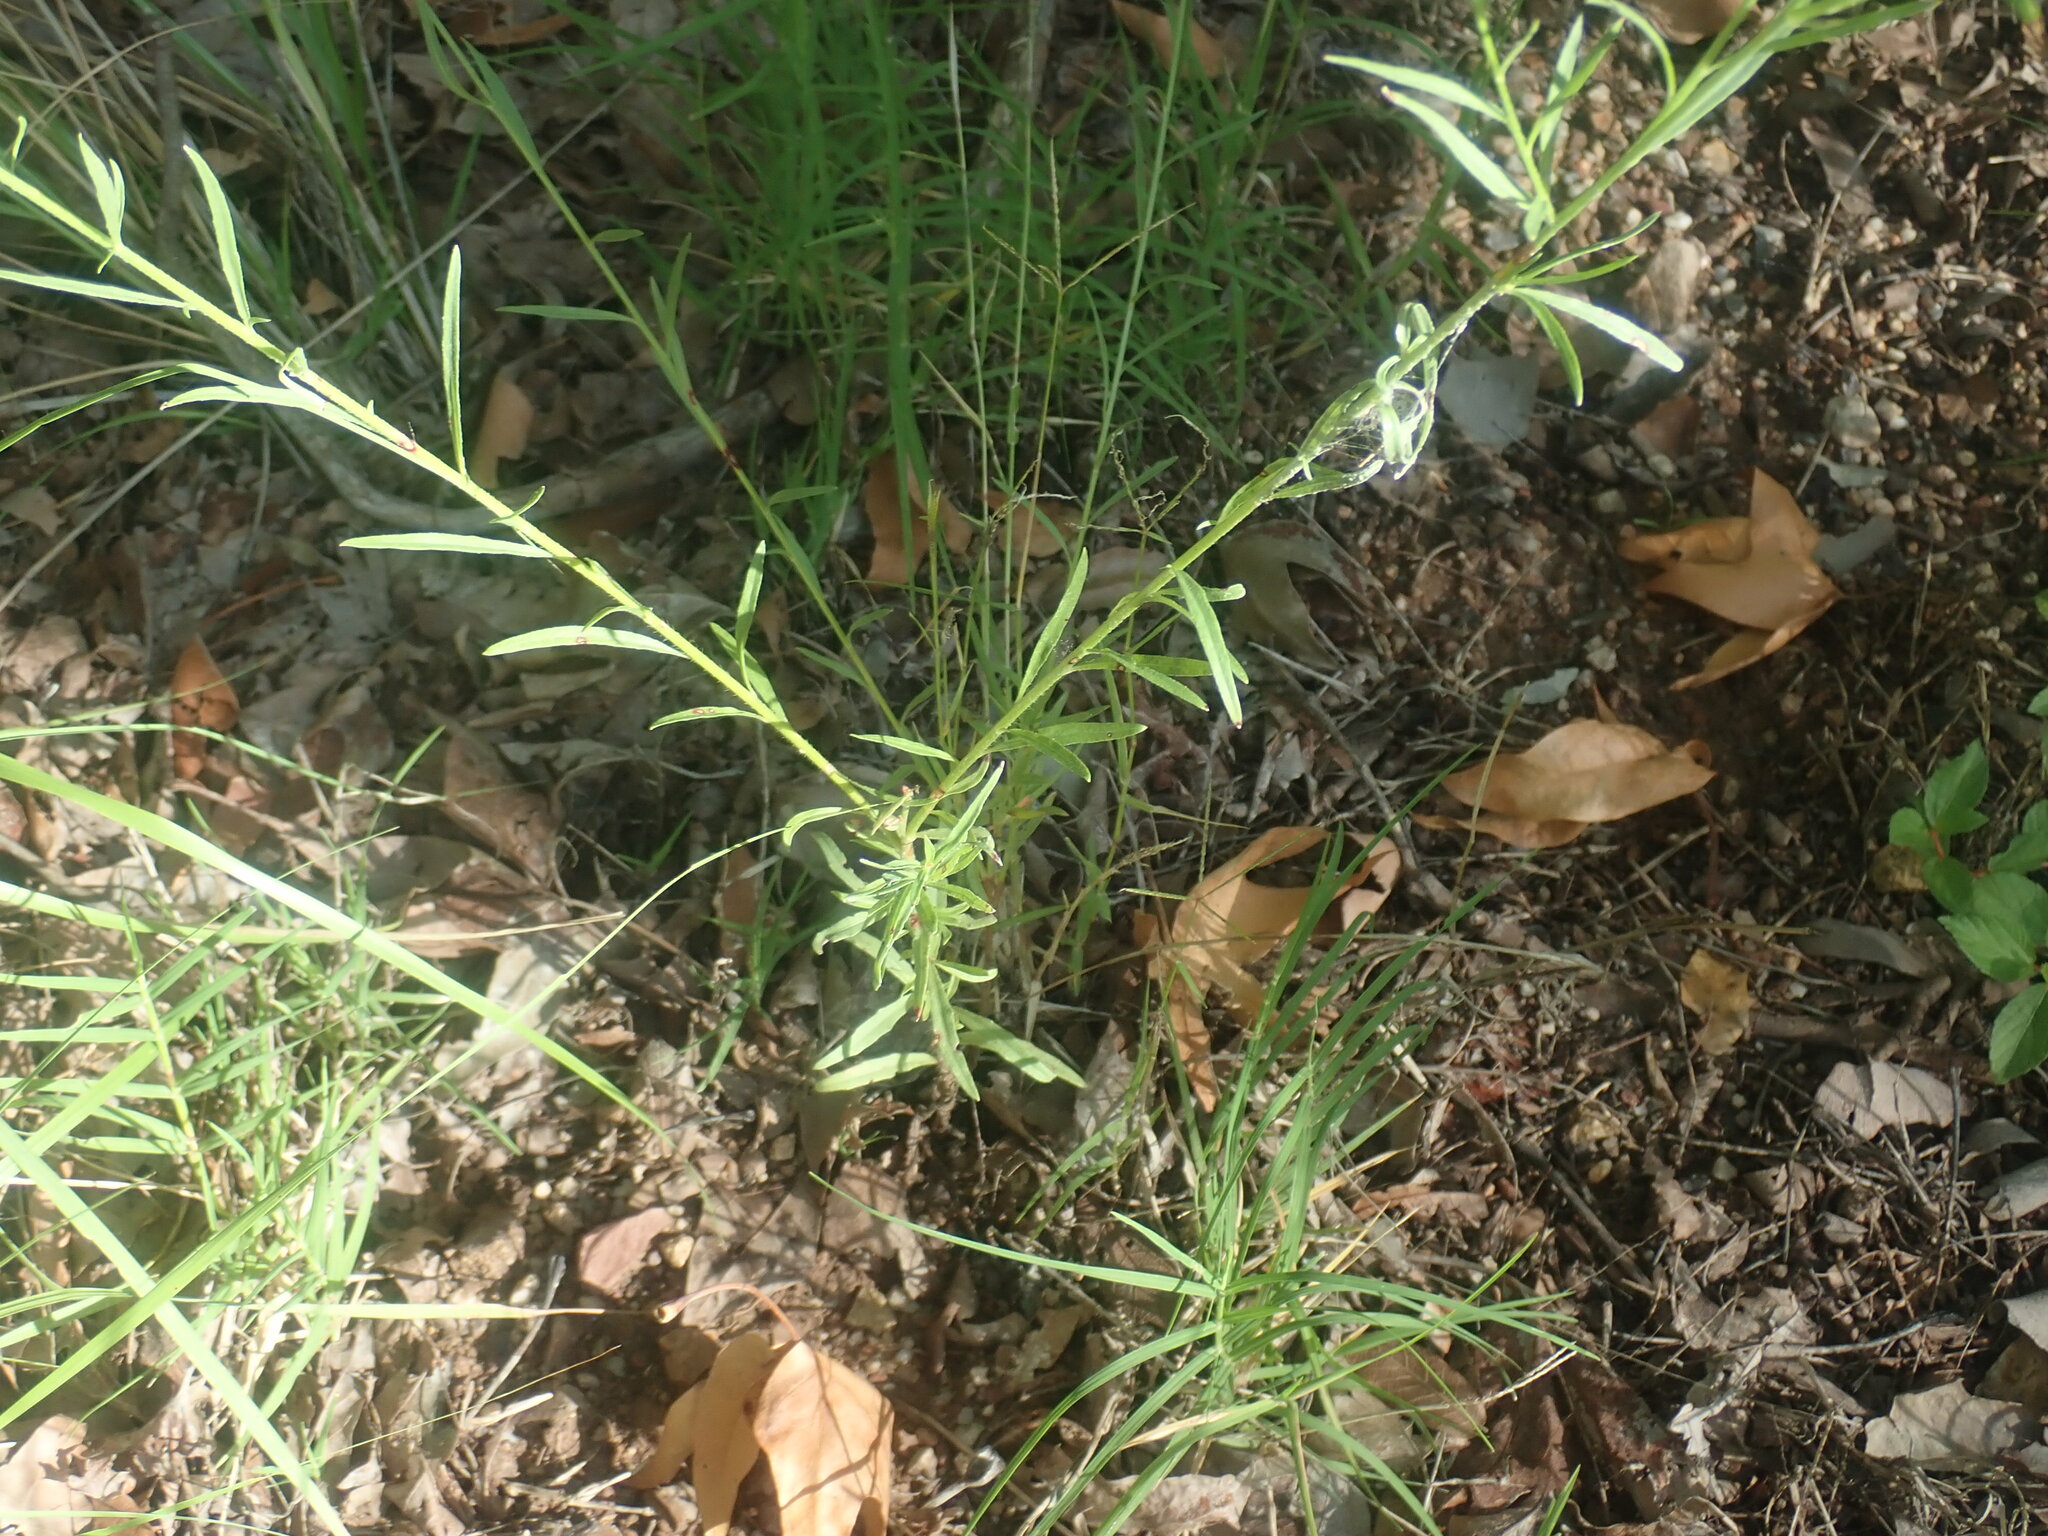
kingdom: Plantae
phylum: Tracheophyta
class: Magnoliopsida
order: Myrtales
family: Onagraceae
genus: Oenothera
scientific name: Oenothera podocarpa
